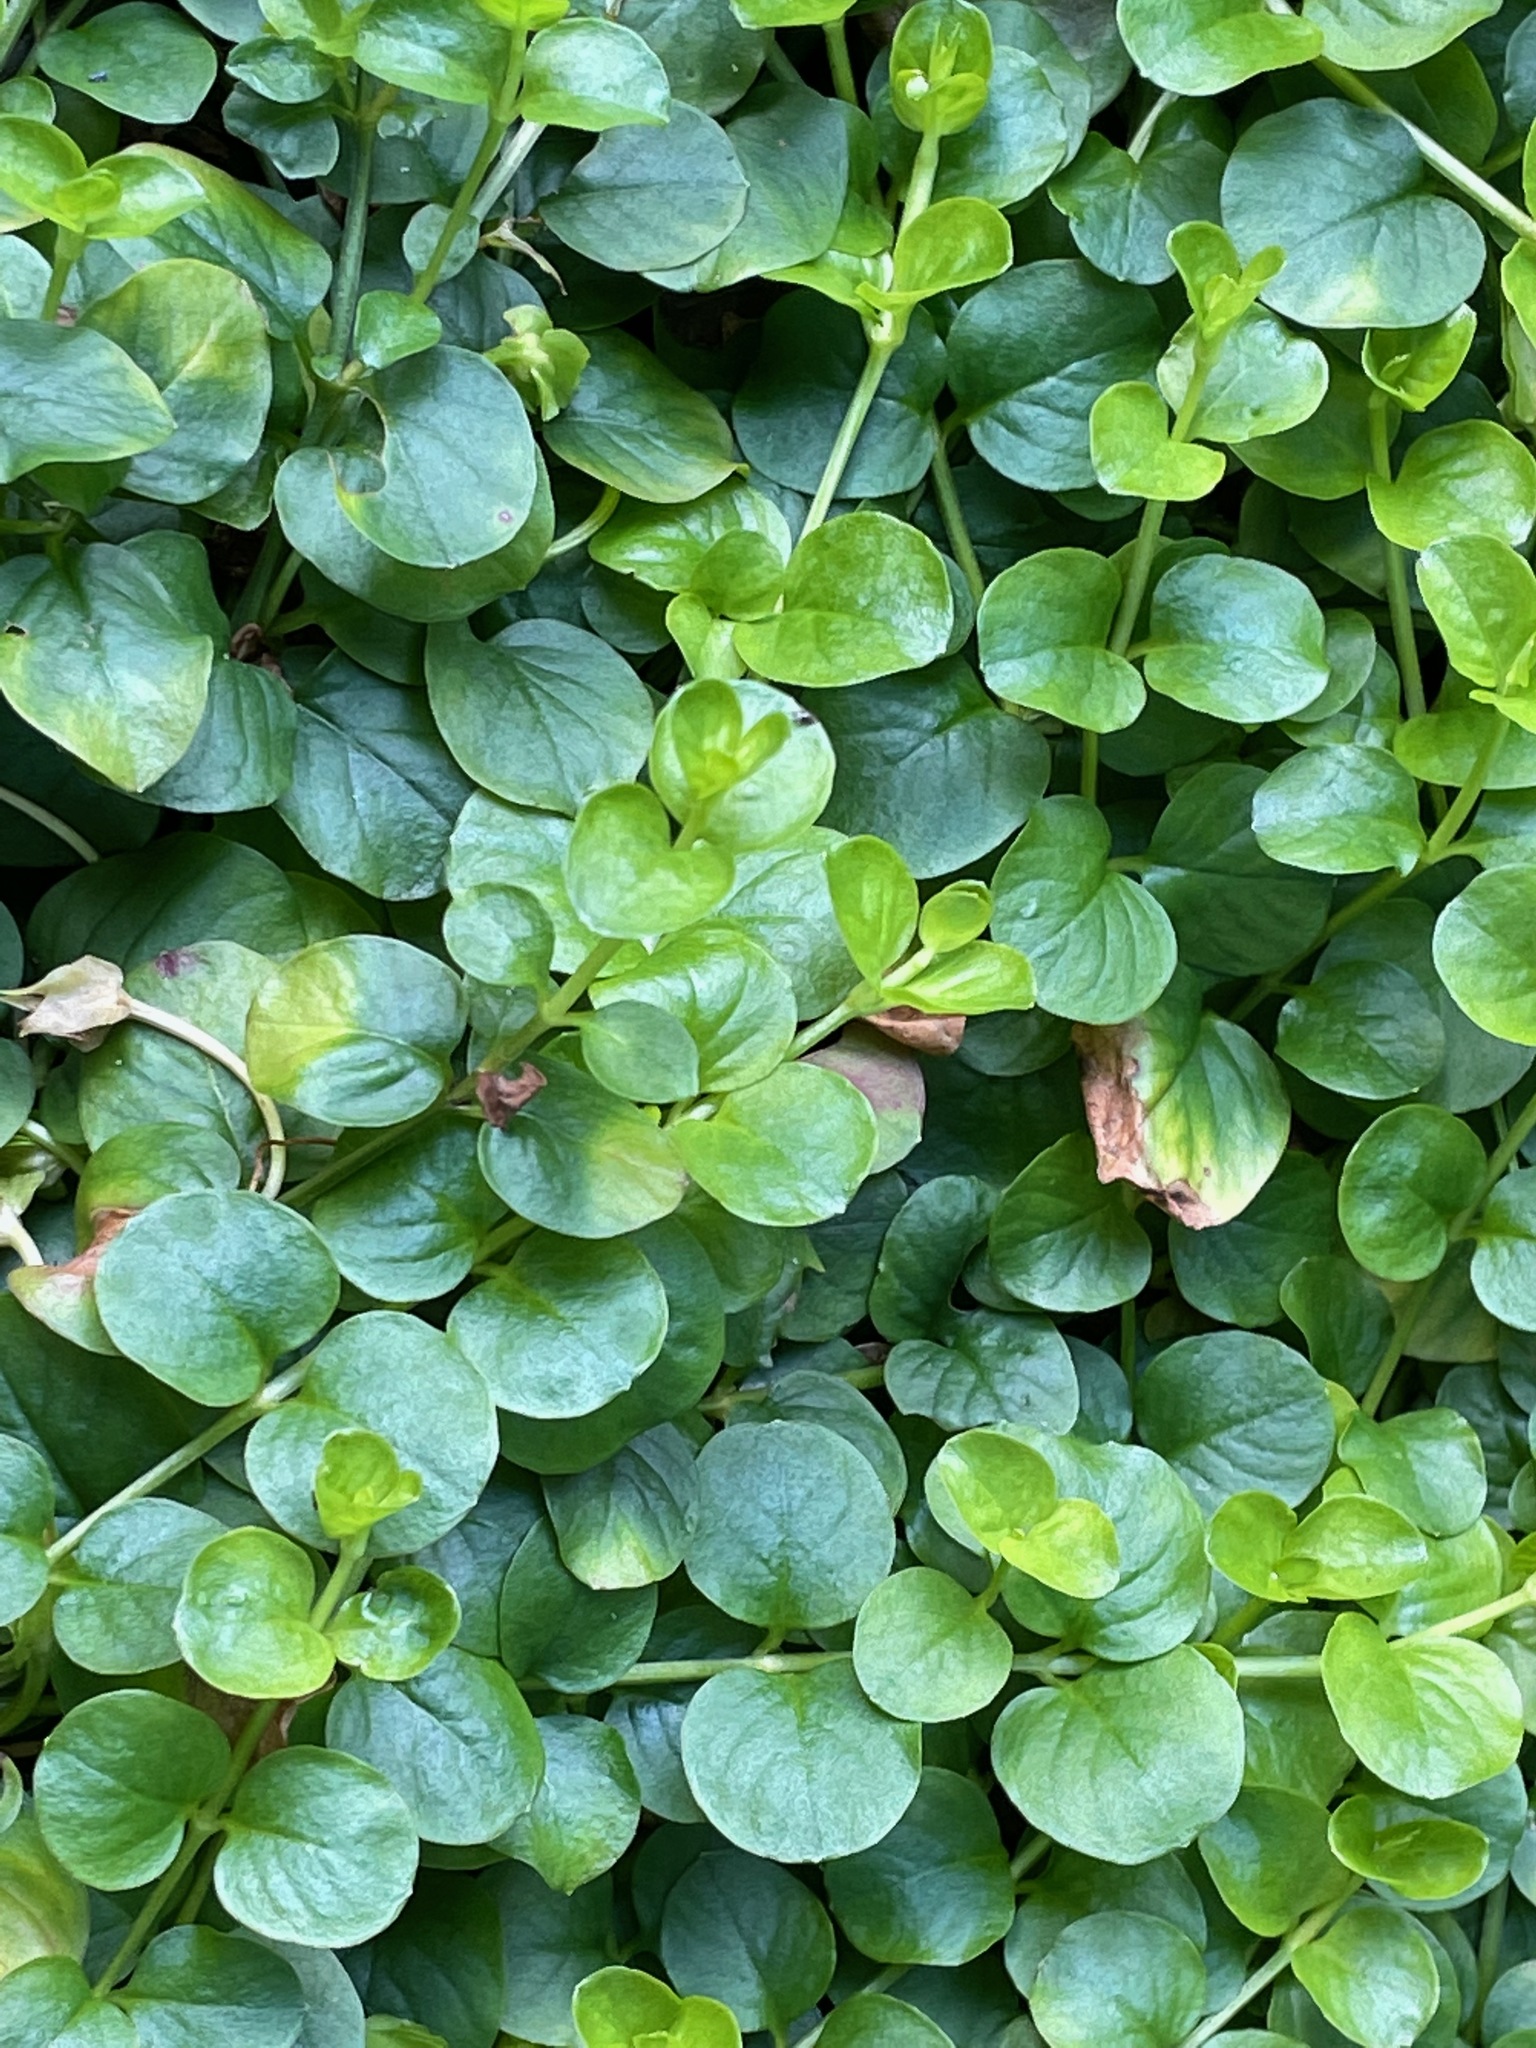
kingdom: Plantae
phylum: Tracheophyta
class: Magnoliopsida
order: Ericales
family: Primulaceae
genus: Lysimachia
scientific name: Lysimachia nummularia
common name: Moneywort
